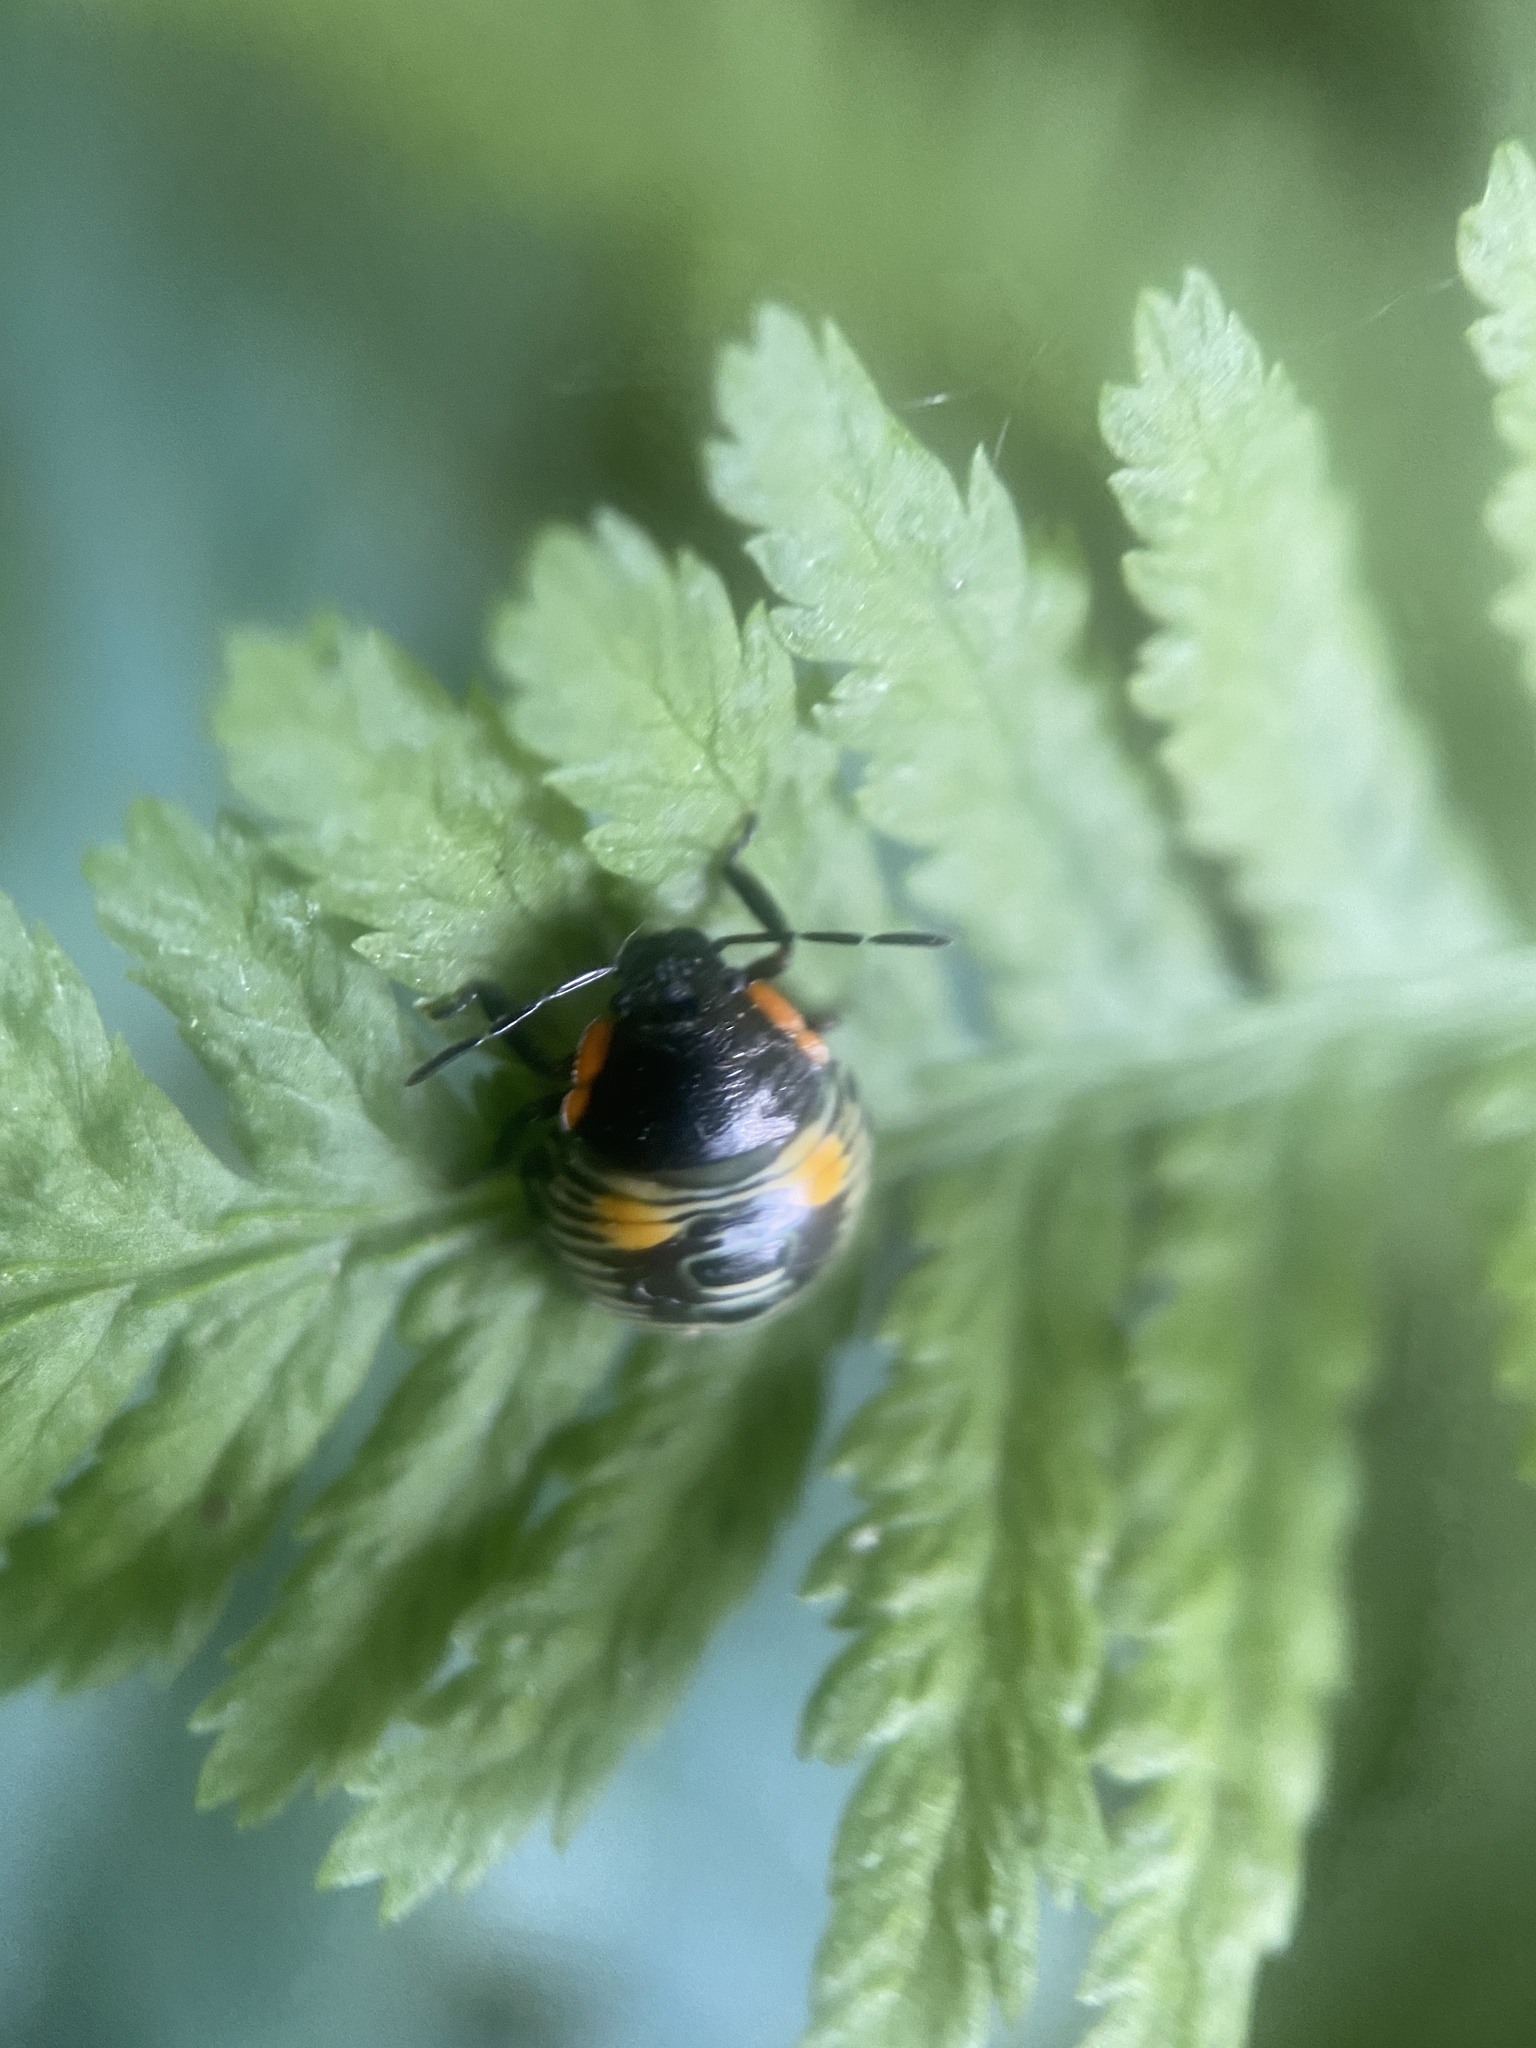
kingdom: Animalia
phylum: Arthropoda
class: Insecta
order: Hemiptera
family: Pentatomidae
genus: Chinavia
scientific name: Chinavia hilaris
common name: Green stink bug
